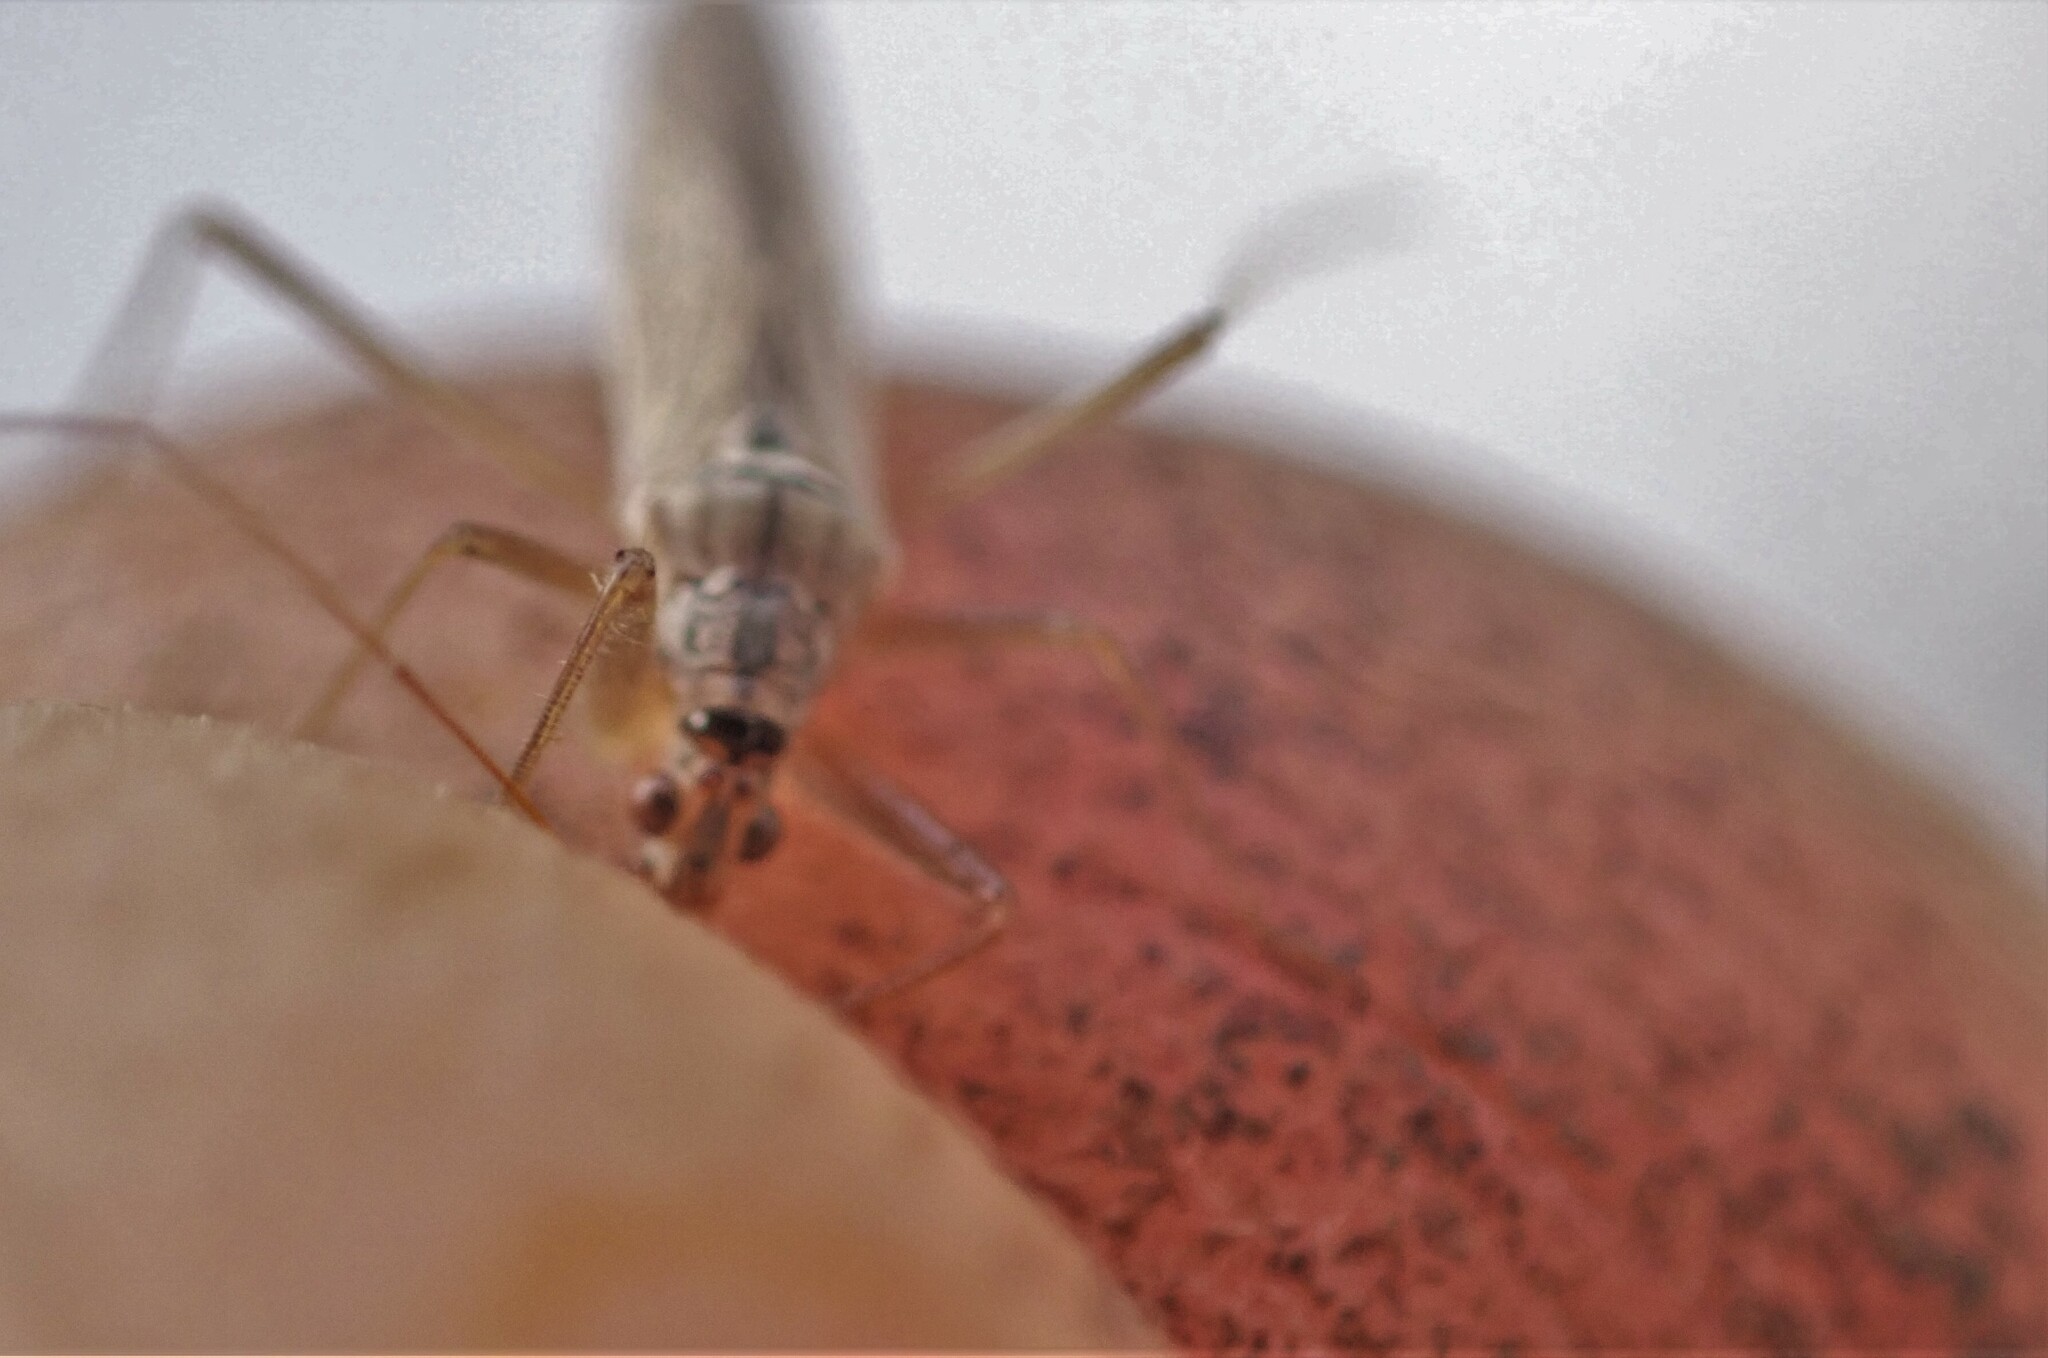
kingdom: Animalia
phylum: Arthropoda
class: Insecta
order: Hemiptera
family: Nabidae
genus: Nabis
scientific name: Nabis kinbergii
